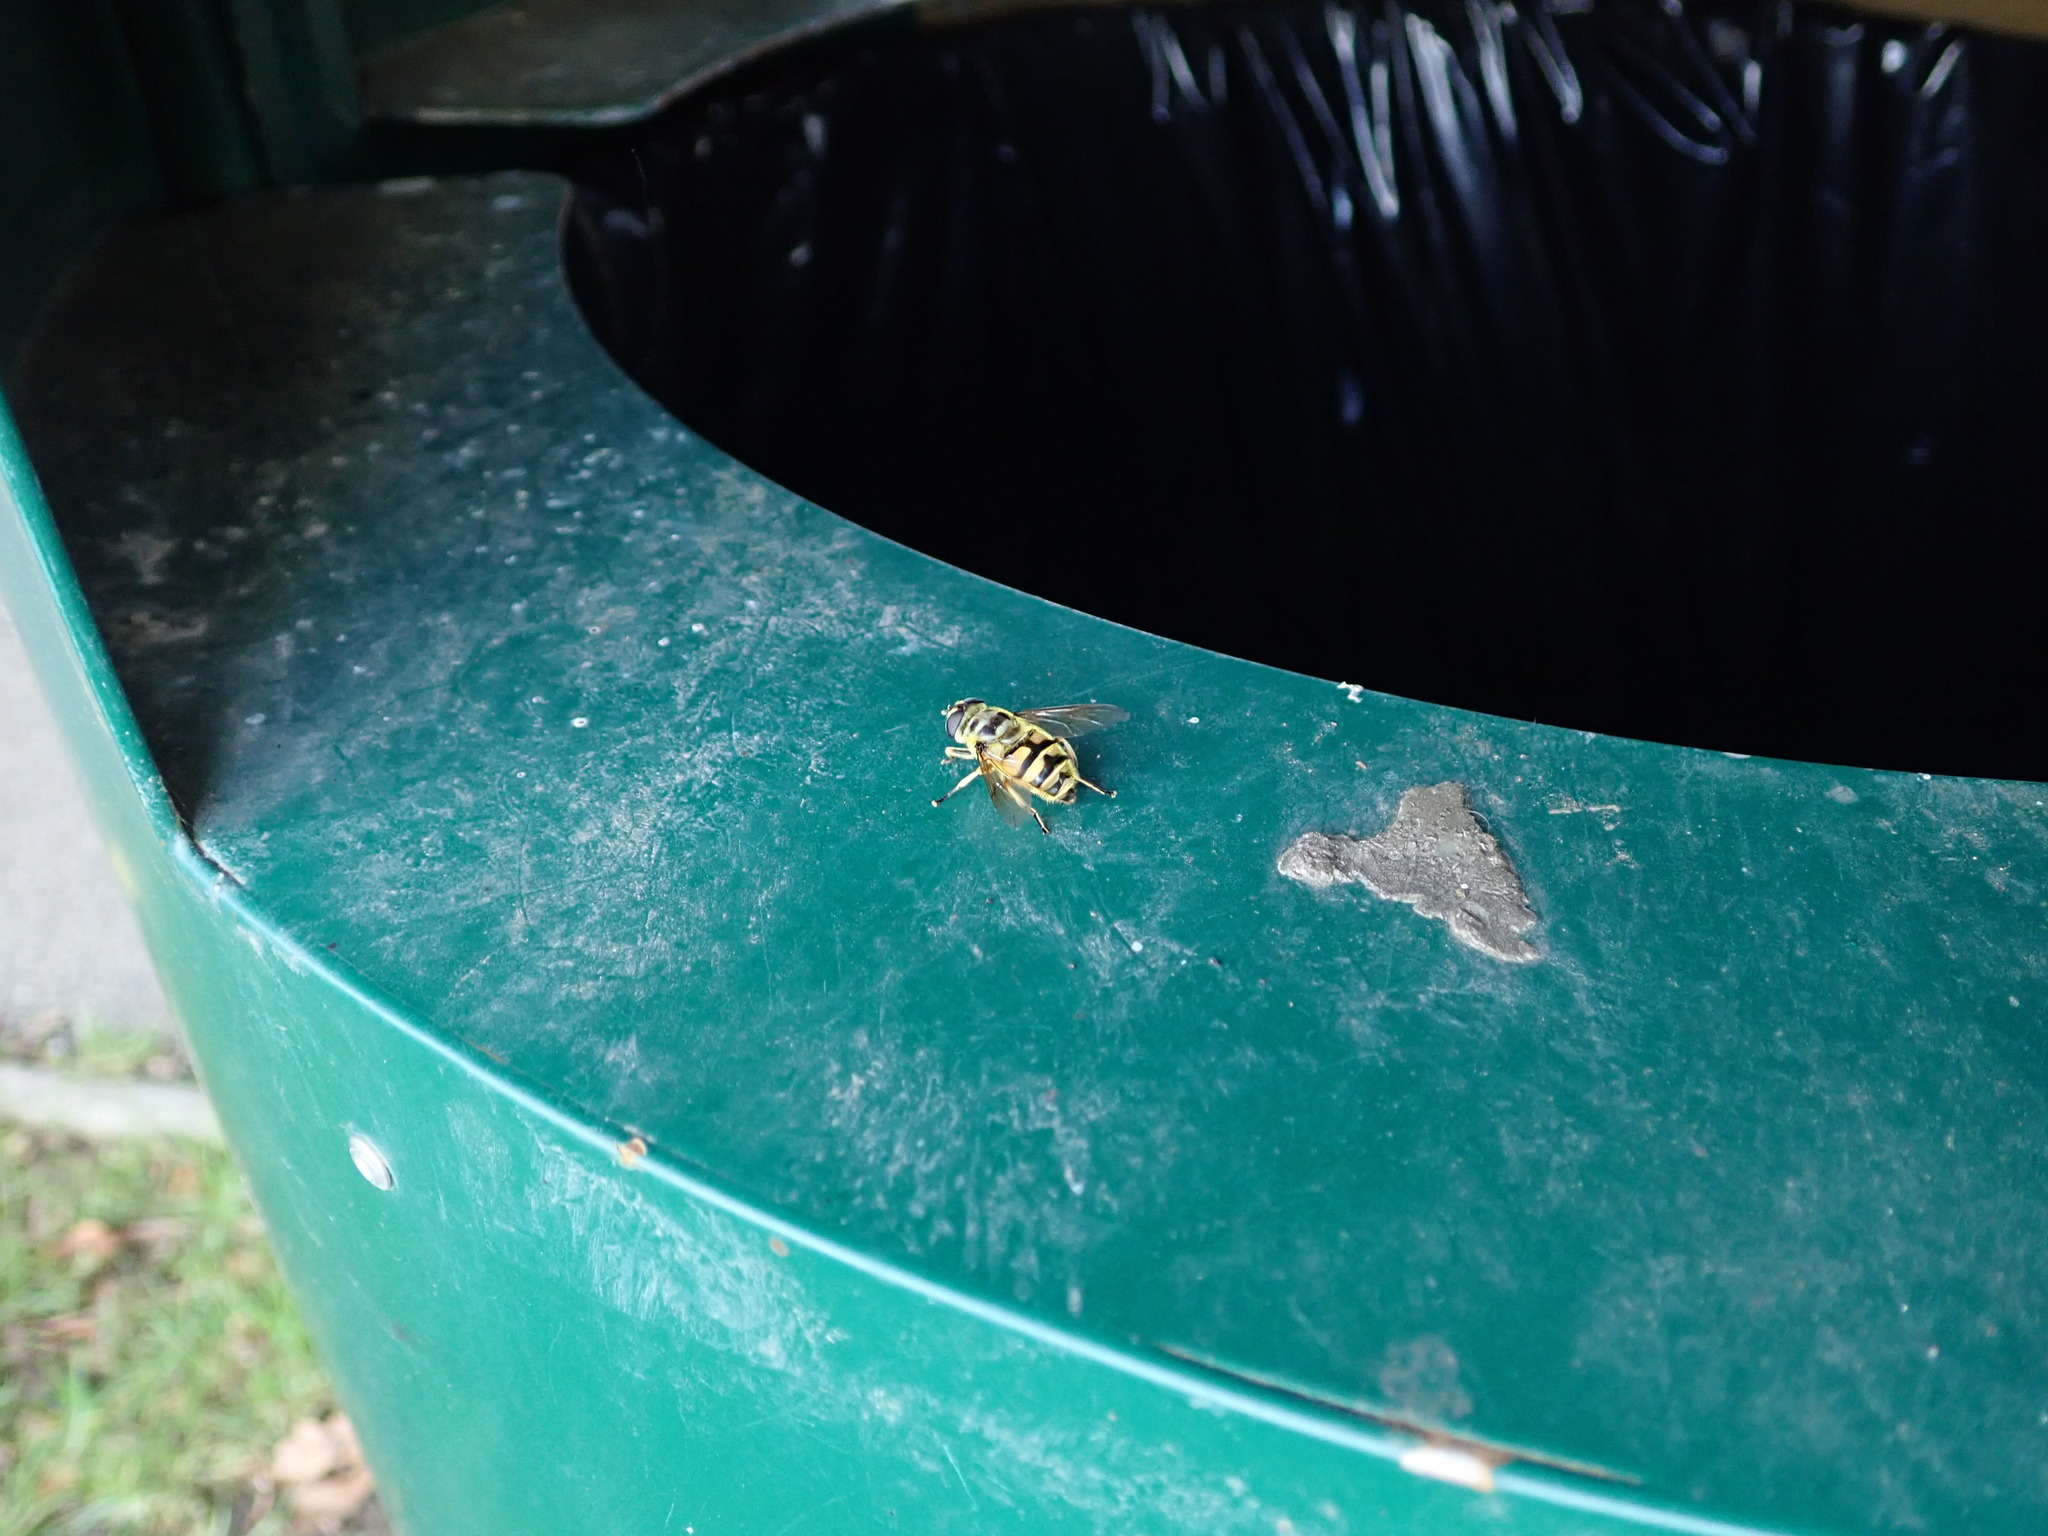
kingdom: Animalia
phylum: Arthropoda
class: Insecta
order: Diptera
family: Syrphidae
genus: Myathropa
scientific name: Myathropa florea
